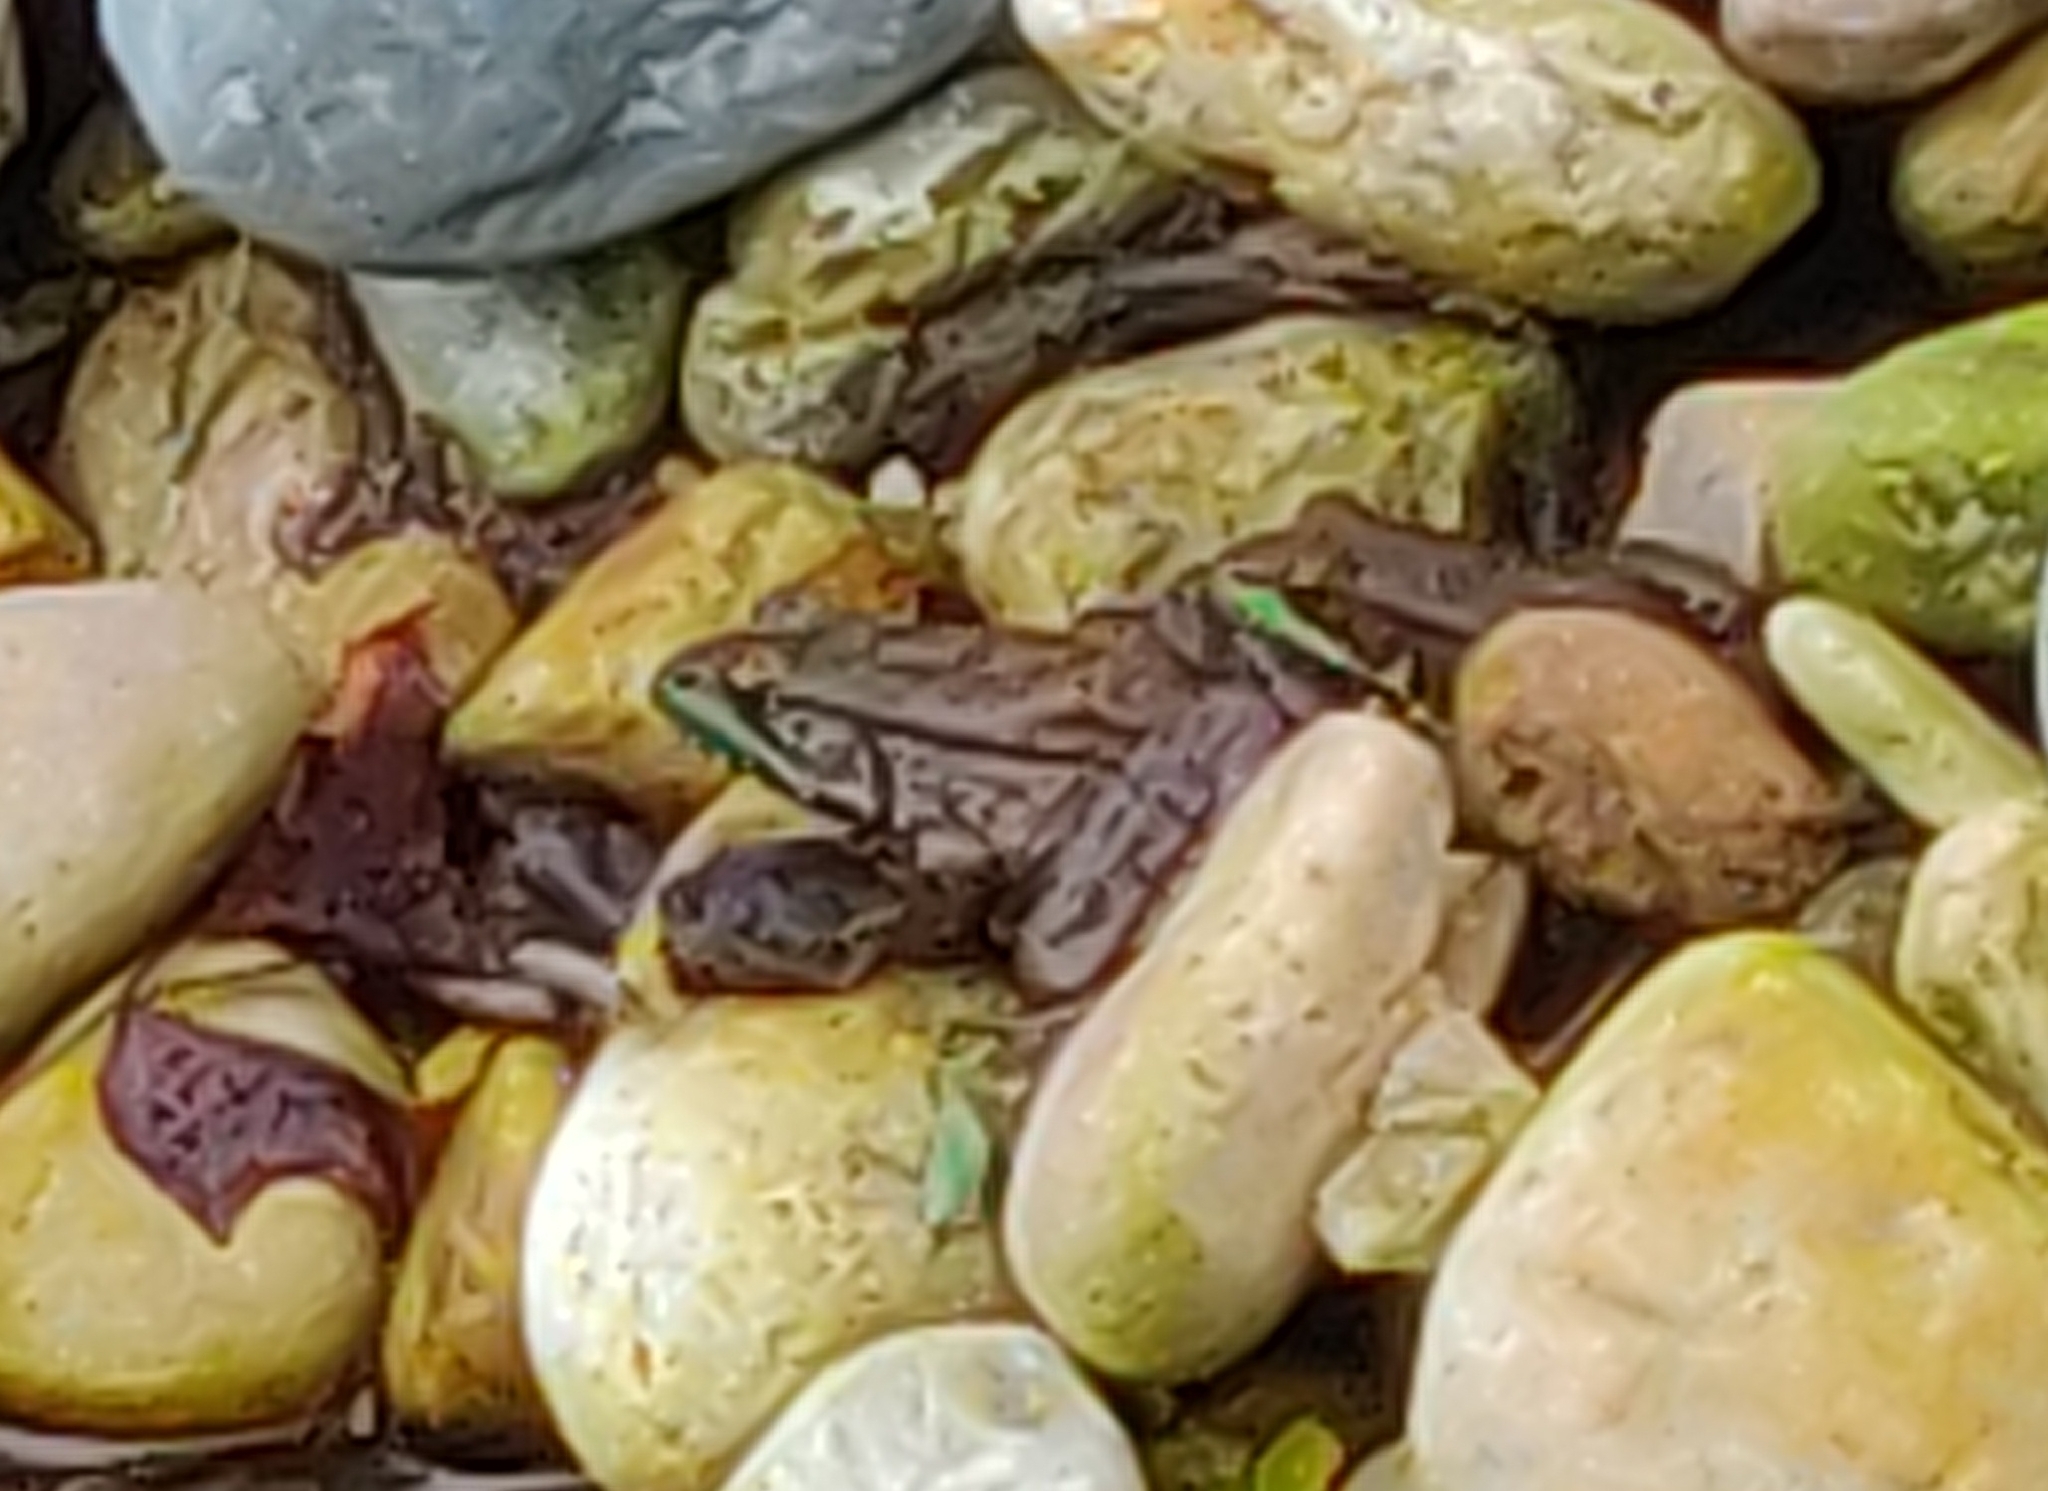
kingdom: Animalia
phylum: Chordata
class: Amphibia
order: Anura
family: Ranidae
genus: Lithobates
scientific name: Lithobates clamitans
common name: Green frog
